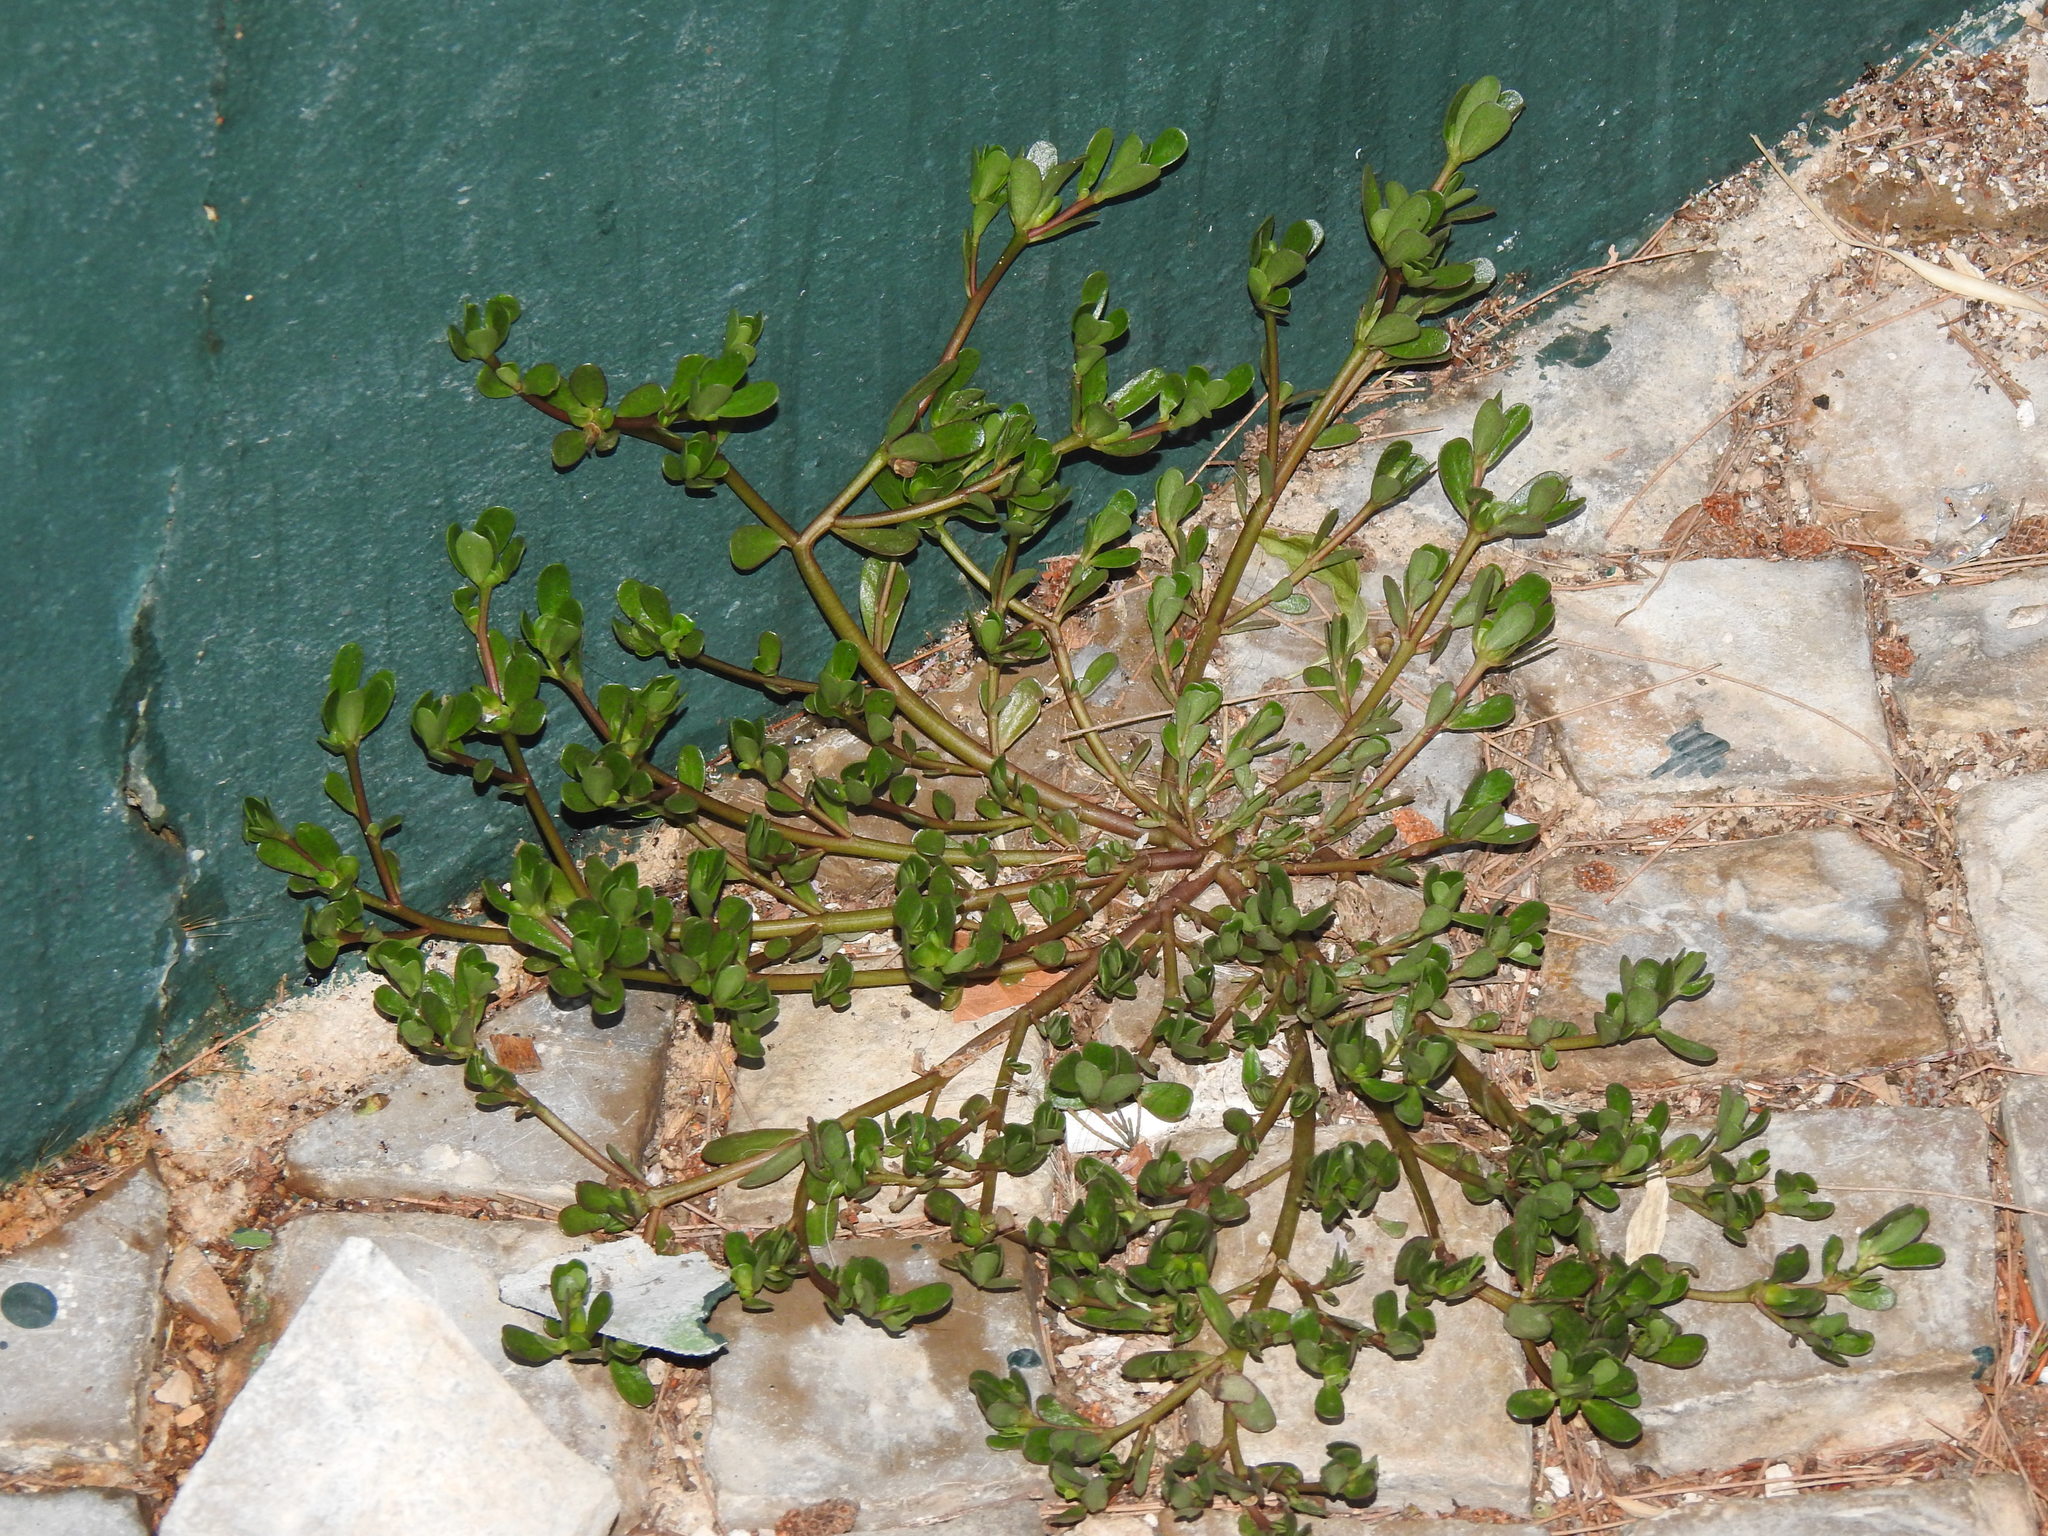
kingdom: Plantae
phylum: Tracheophyta
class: Magnoliopsida
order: Caryophyllales
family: Portulacaceae
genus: Portulaca
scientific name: Portulaca oleracea
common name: Common purslane
